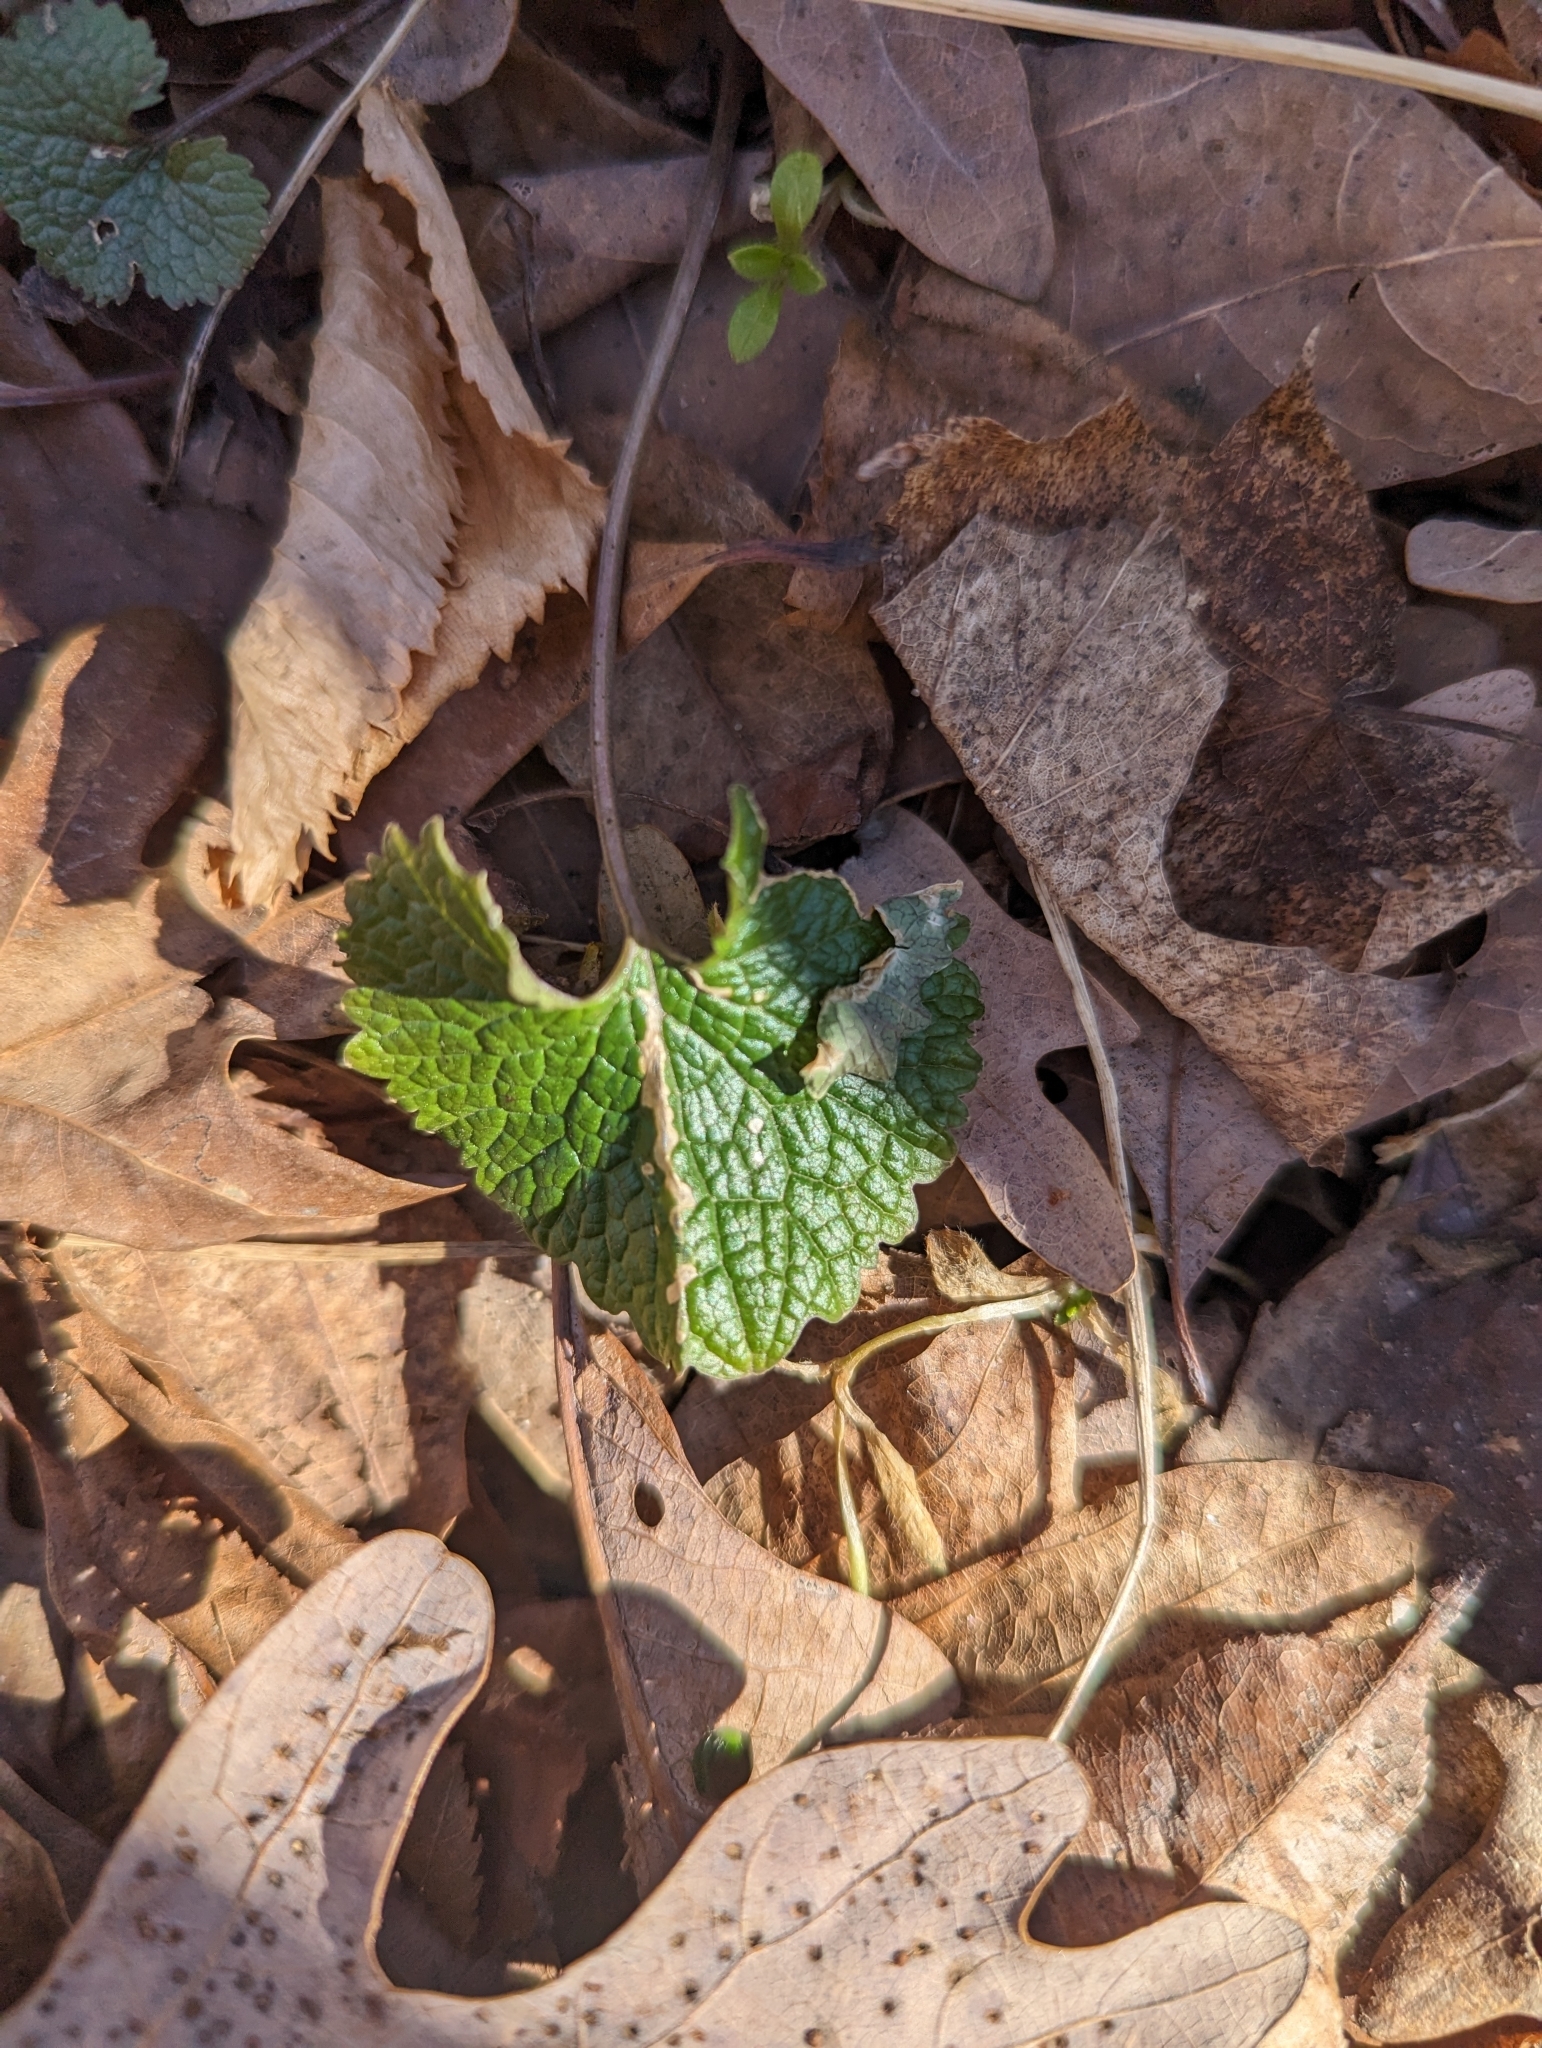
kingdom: Plantae
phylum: Tracheophyta
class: Magnoliopsida
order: Brassicales
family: Brassicaceae
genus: Alliaria
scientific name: Alliaria petiolata
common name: Garlic mustard
